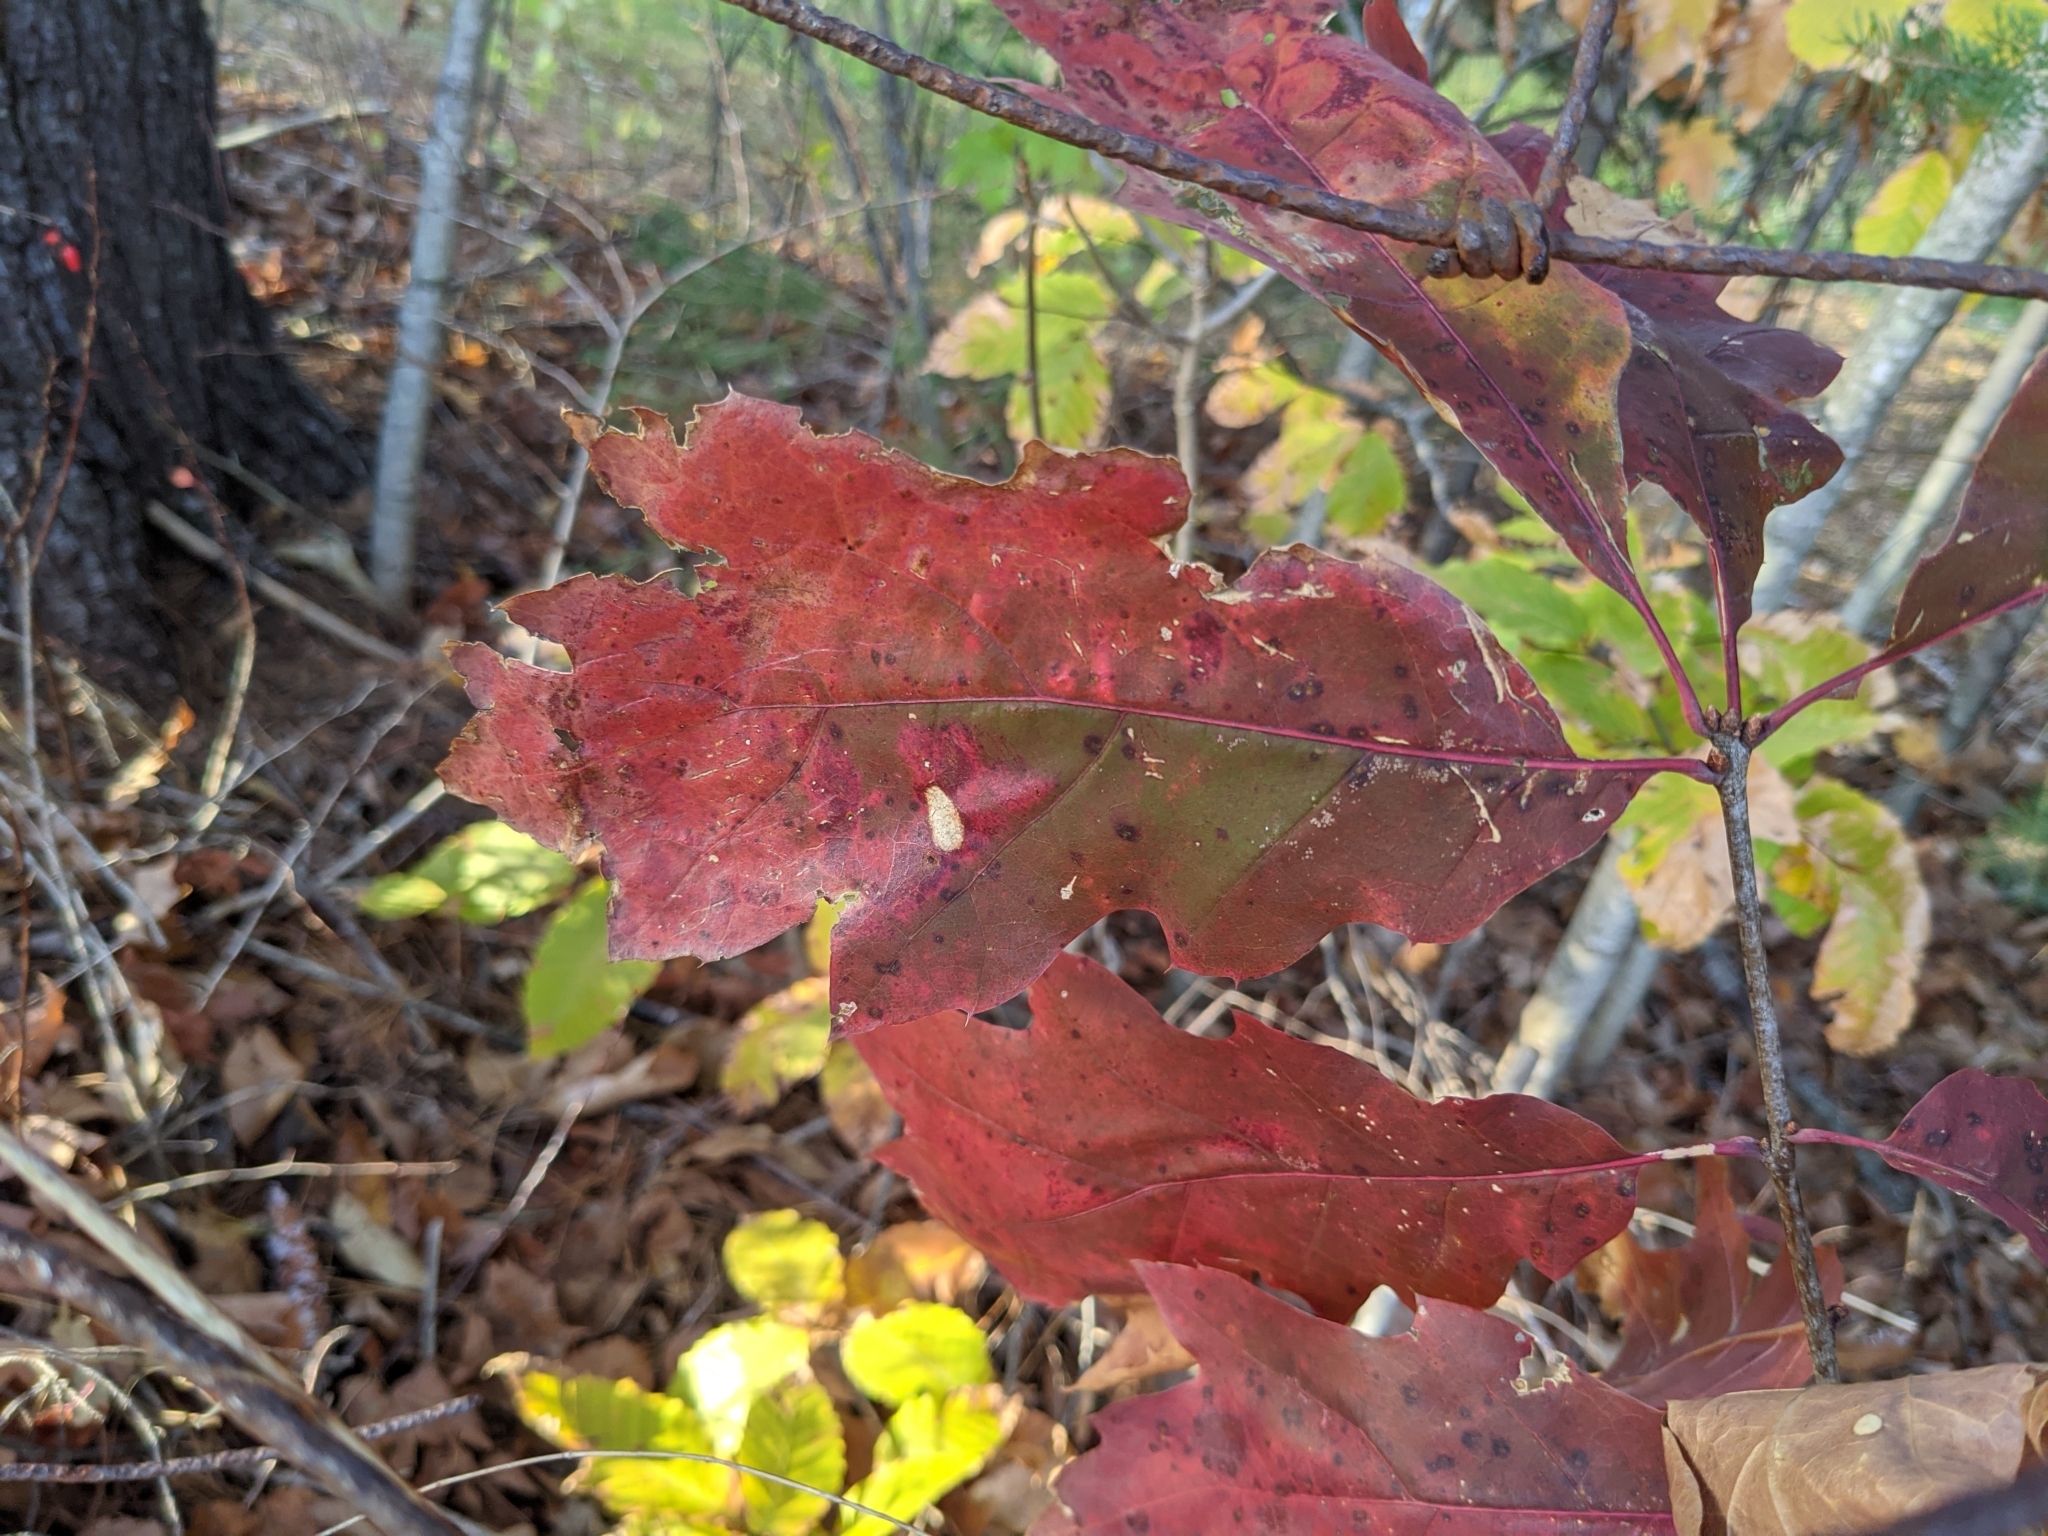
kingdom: Plantae
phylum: Tracheophyta
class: Magnoliopsida
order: Fagales
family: Fagaceae
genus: Quercus
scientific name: Quercus rubra
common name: Red oak
